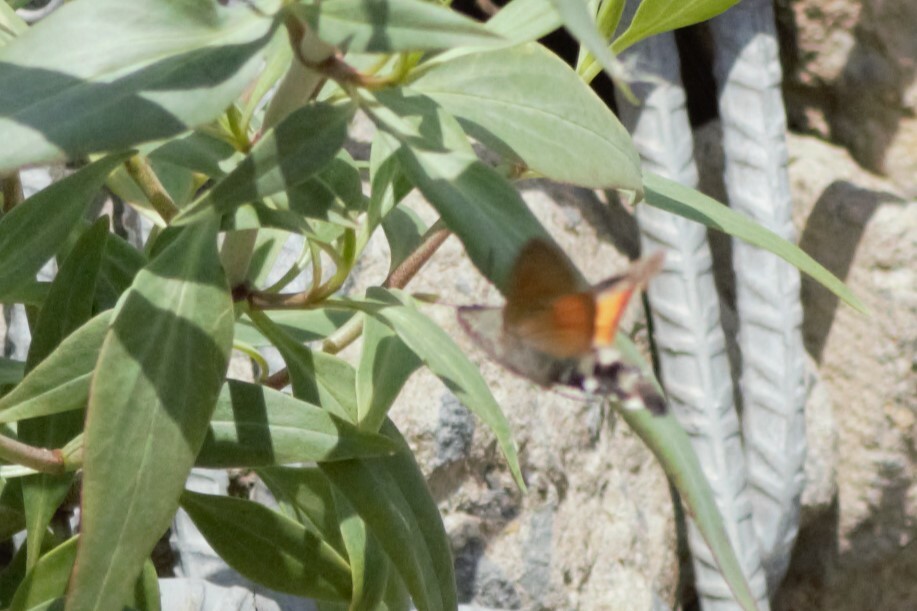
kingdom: Animalia
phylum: Arthropoda
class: Insecta
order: Lepidoptera
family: Sphingidae
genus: Macroglossum
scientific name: Macroglossum stellatarum
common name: Humming-bird hawk-moth
